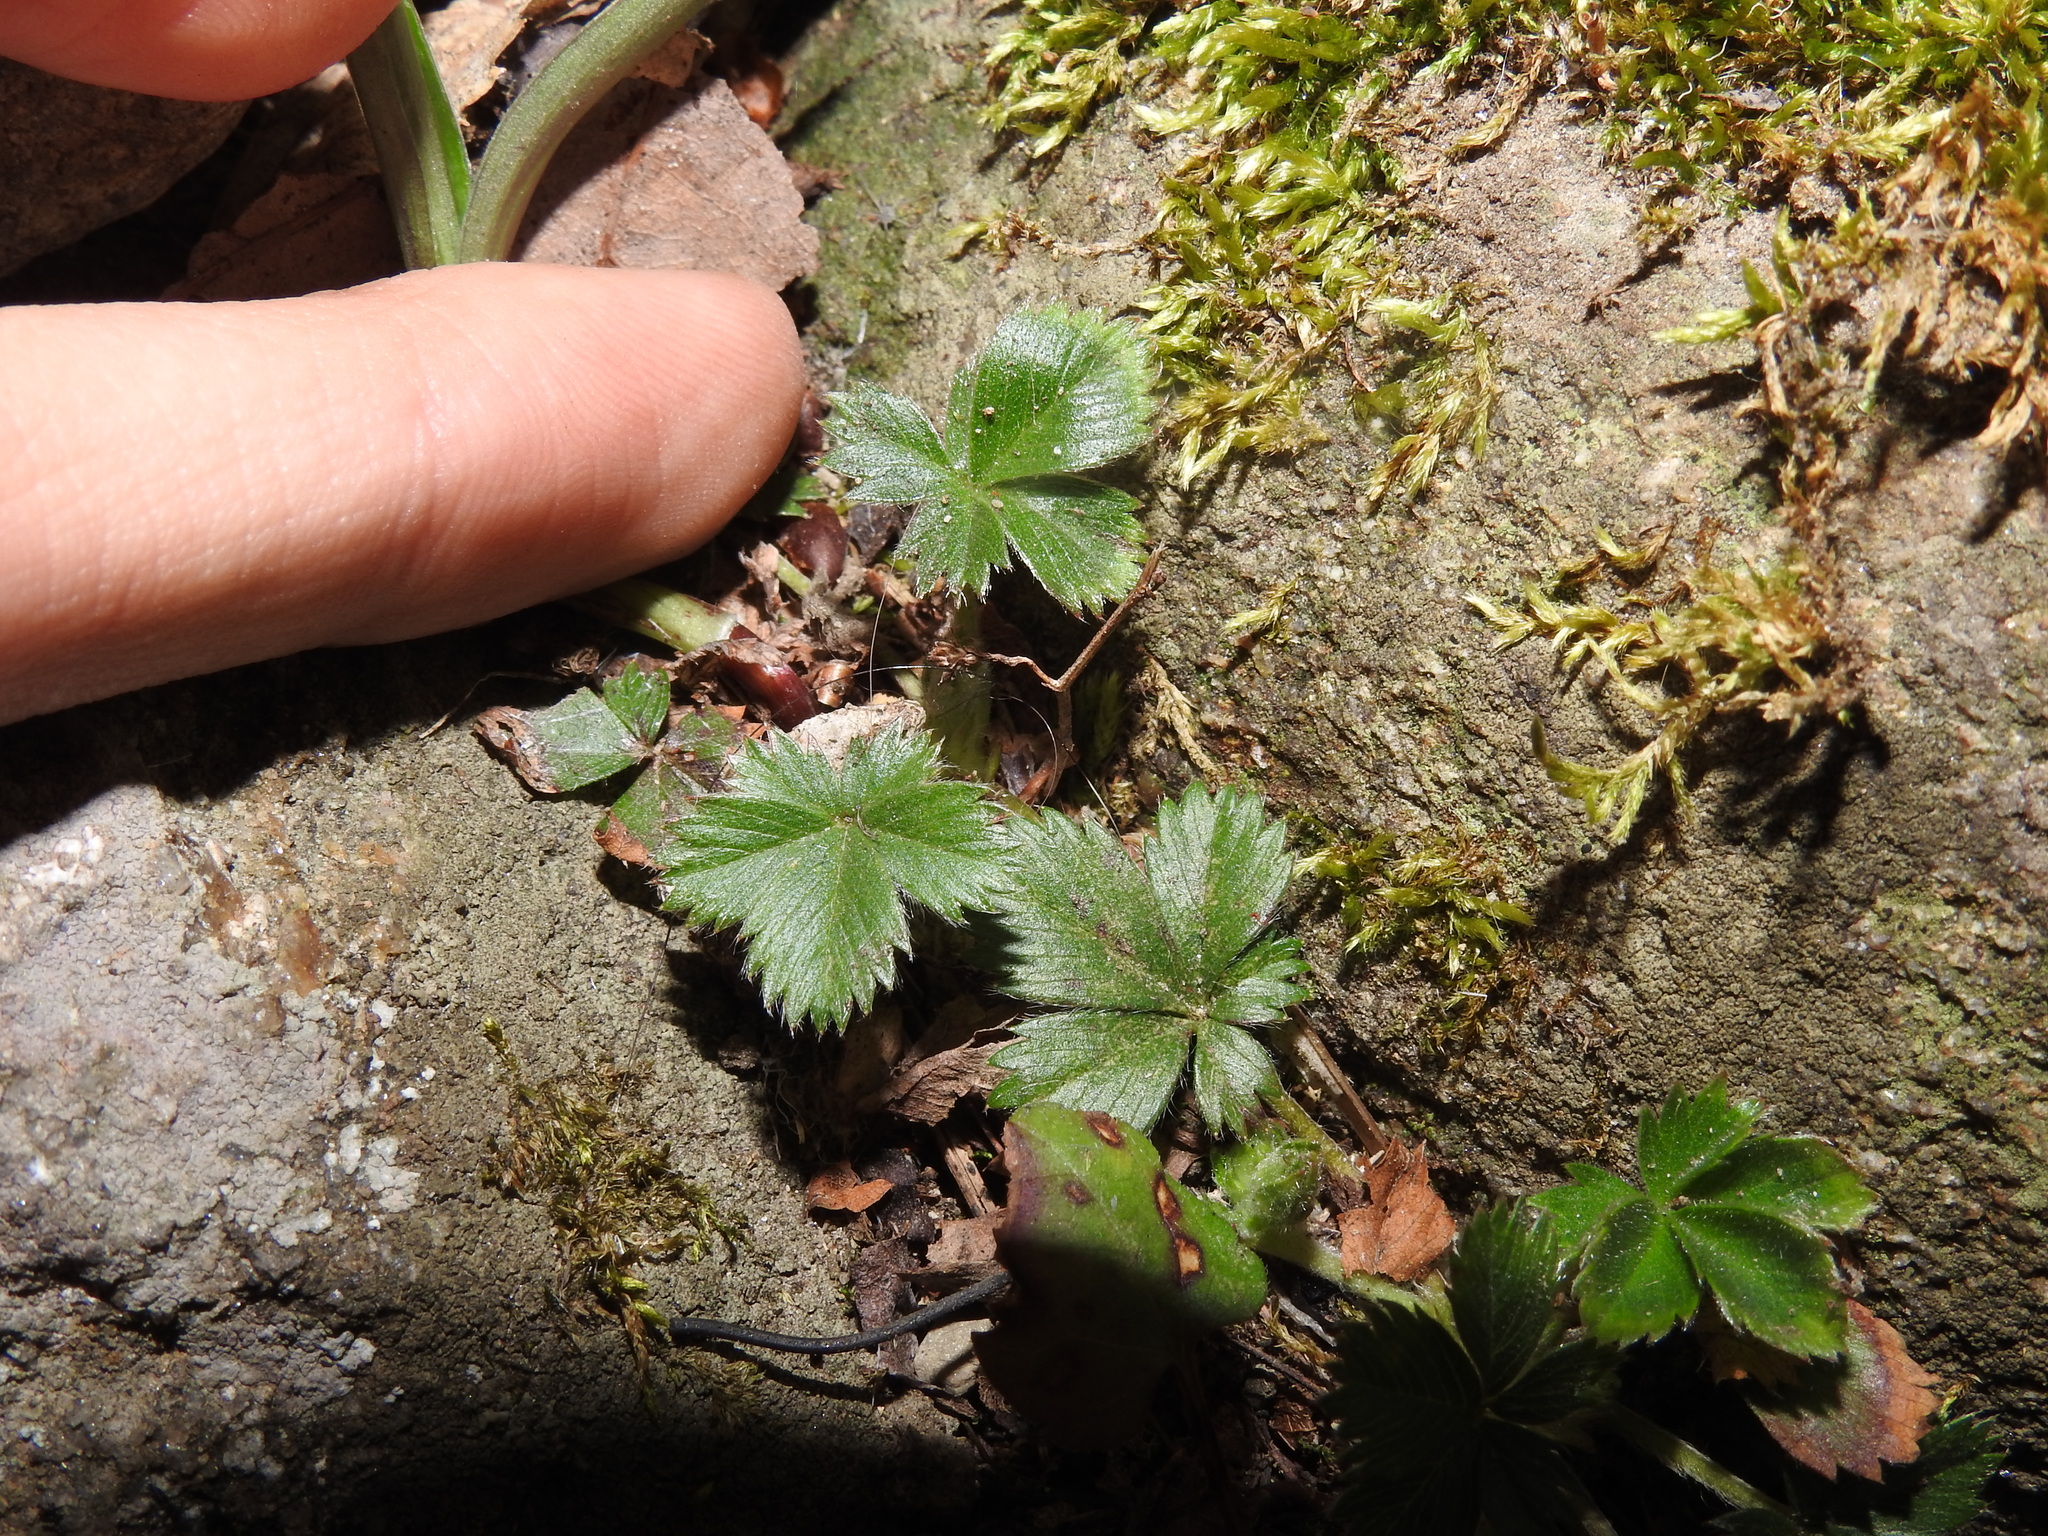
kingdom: Plantae
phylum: Tracheophyta
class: Magnoliopsida
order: Rosales
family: Rosaceae
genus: Potentilla
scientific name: Potentilla canadensis
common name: Canada cinquefoil
